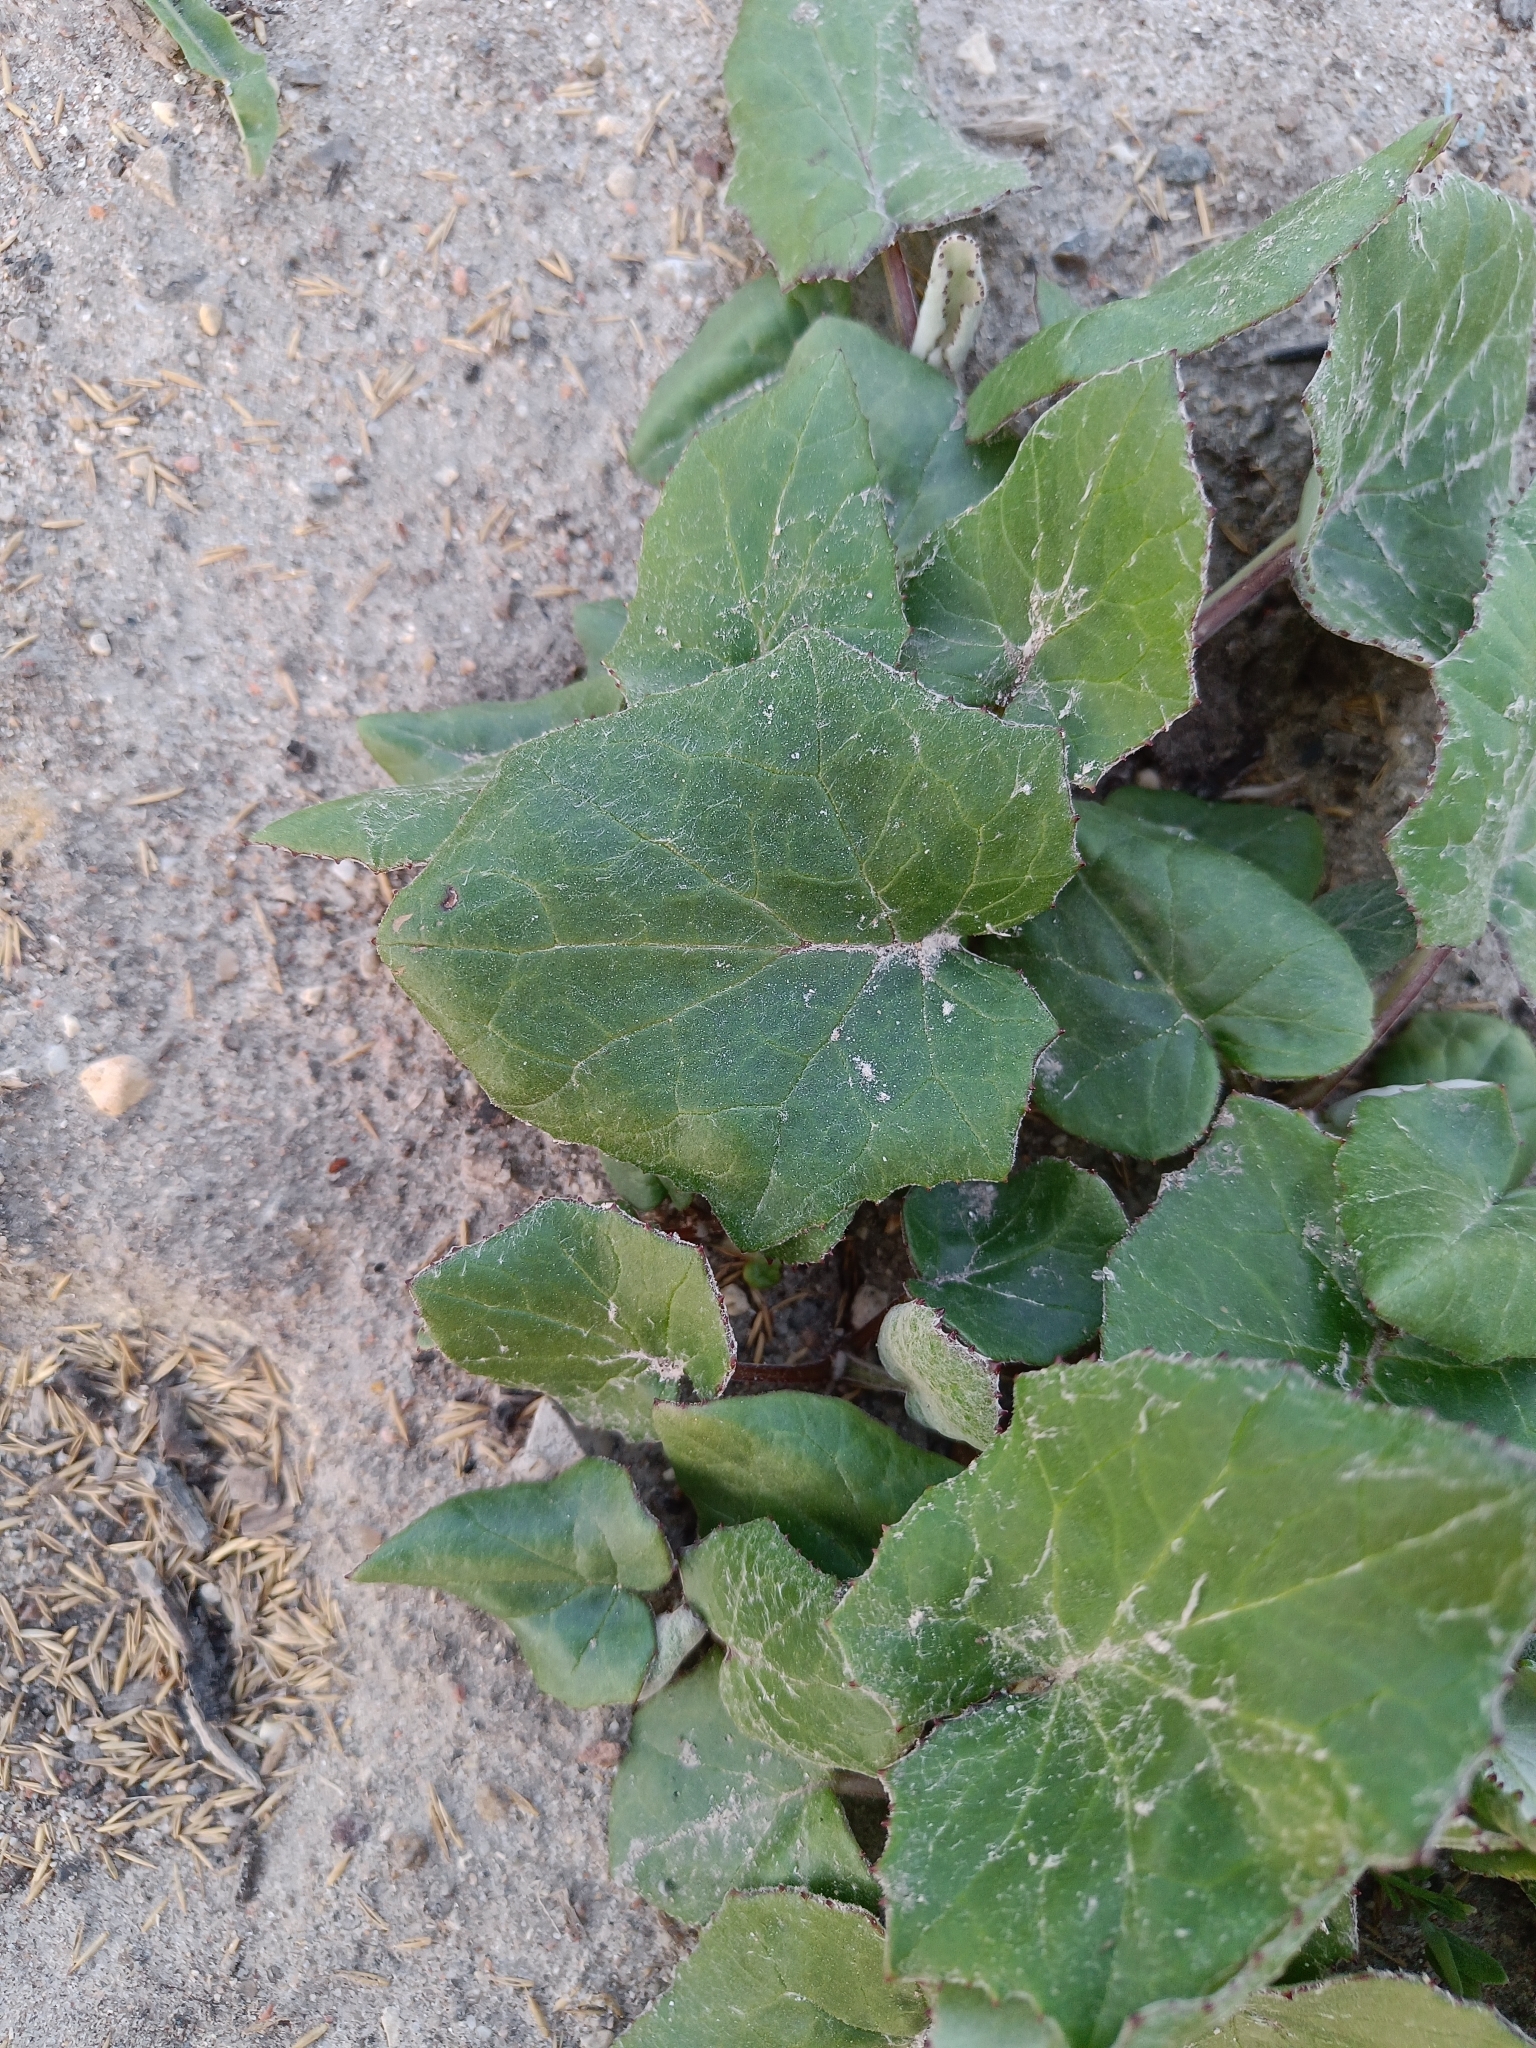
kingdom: Plantae
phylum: Tracheophyta
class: Magnoliopsida
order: Asterales
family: Asteraceae
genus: Tussilago
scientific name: Tussilago farfara
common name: Coltsfoot
